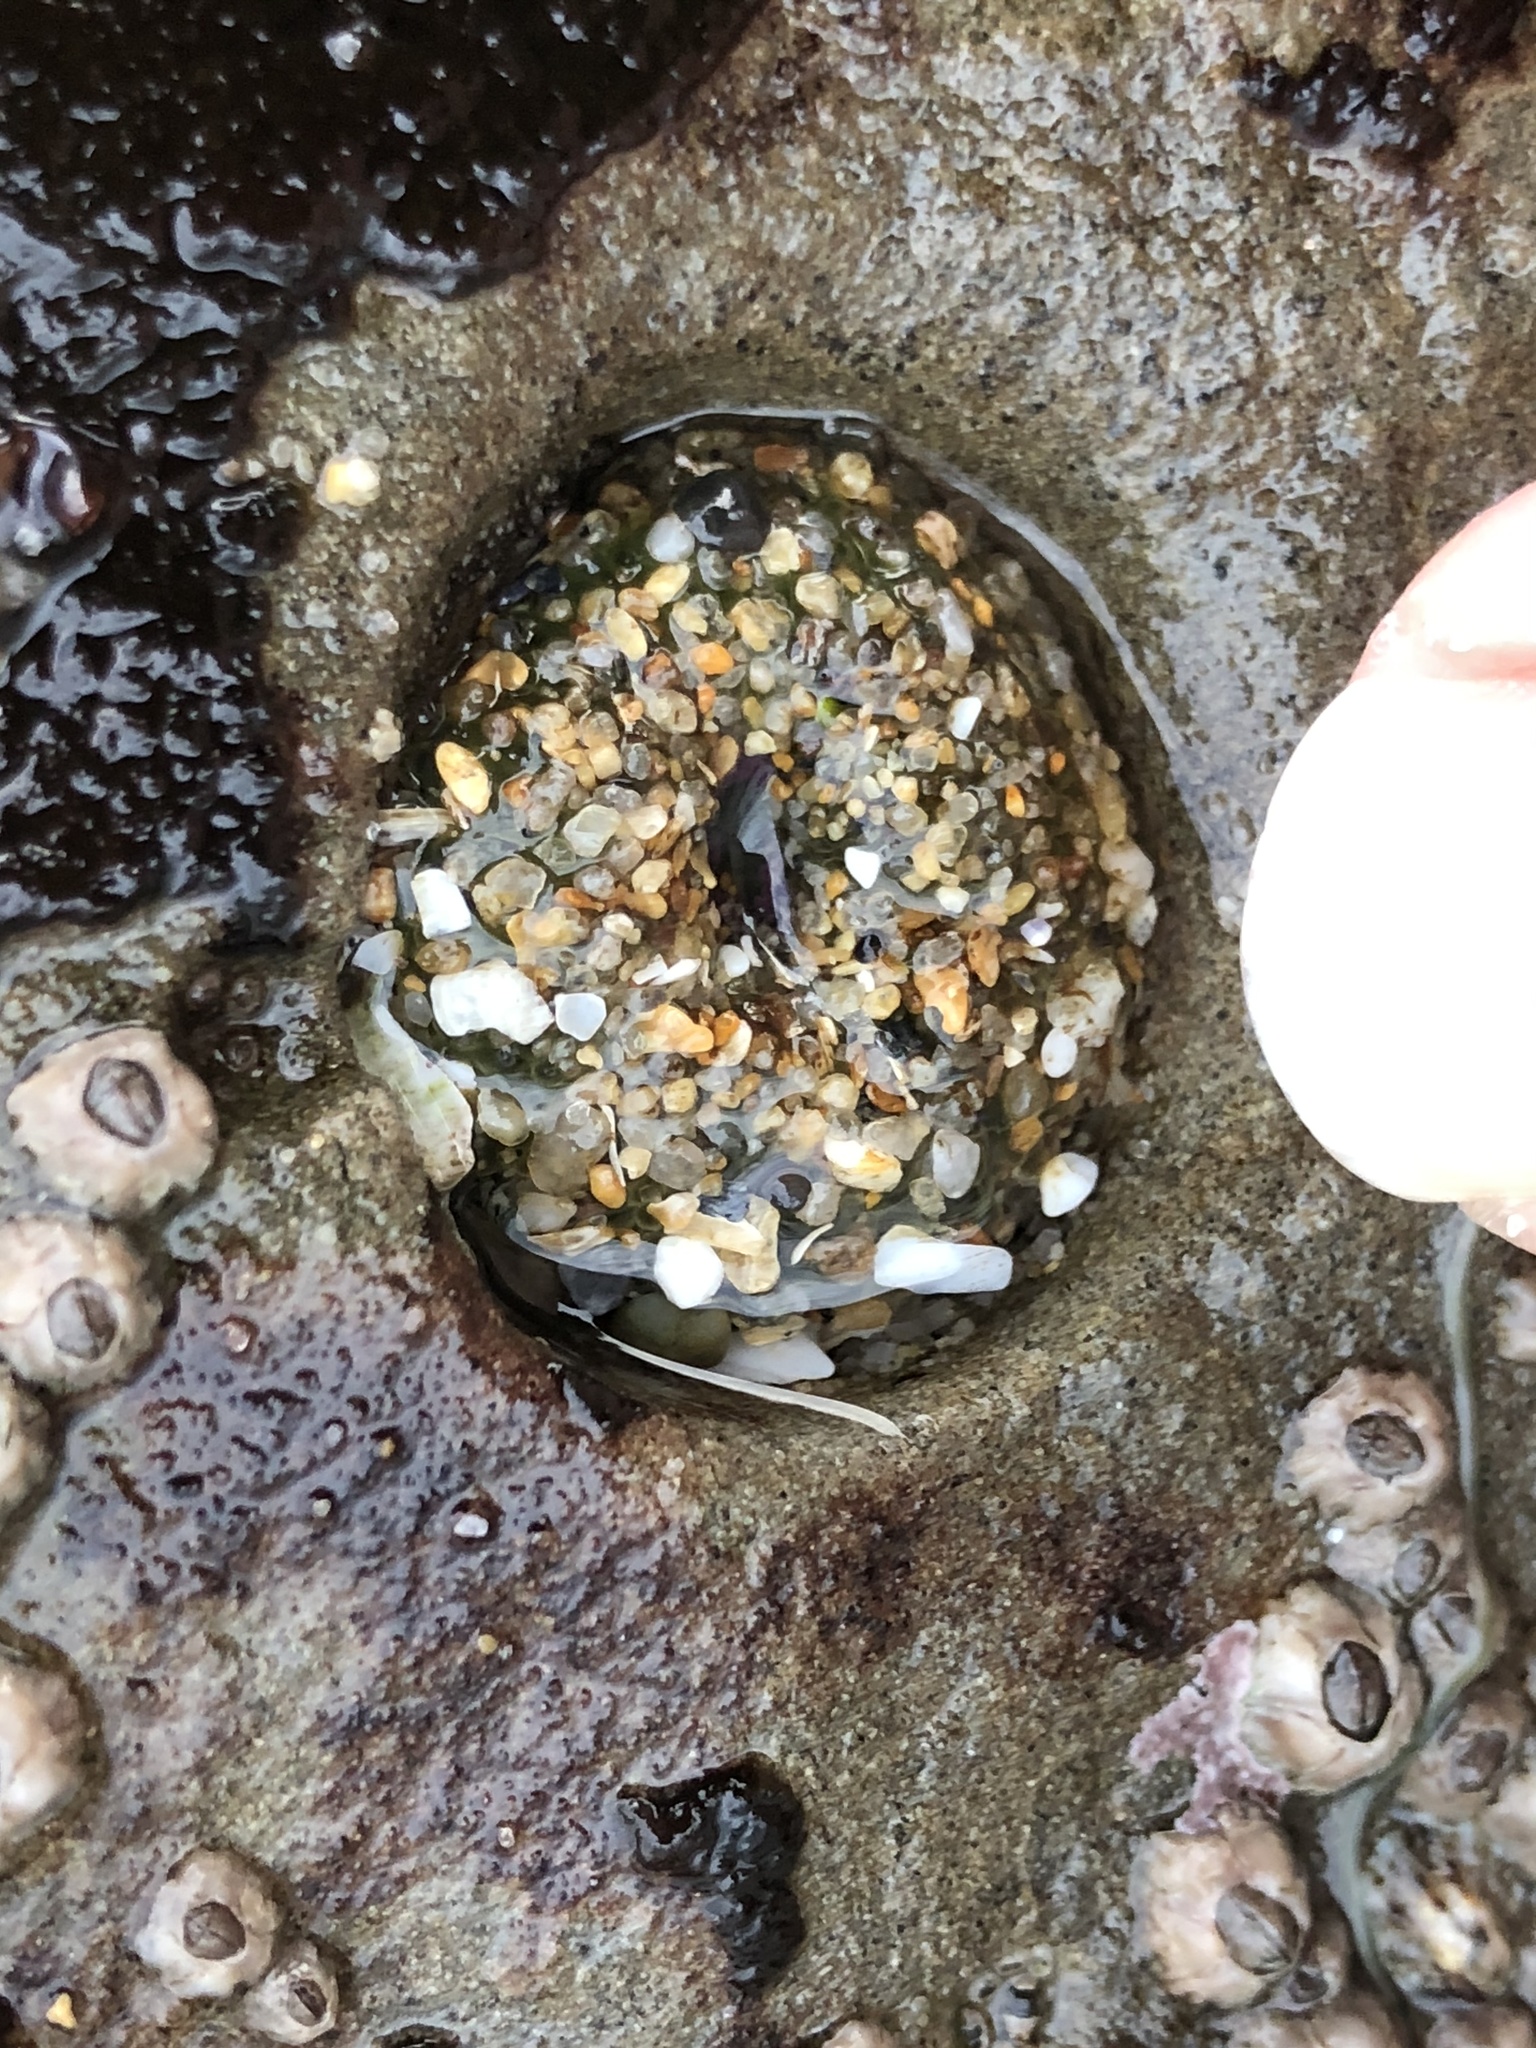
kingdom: Animalia
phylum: Cnidaria
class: Anthozoa
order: Actiniaria
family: Actiniidae
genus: Anthopleura
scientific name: Anthopleura elegantissima
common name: Clonal anemone
